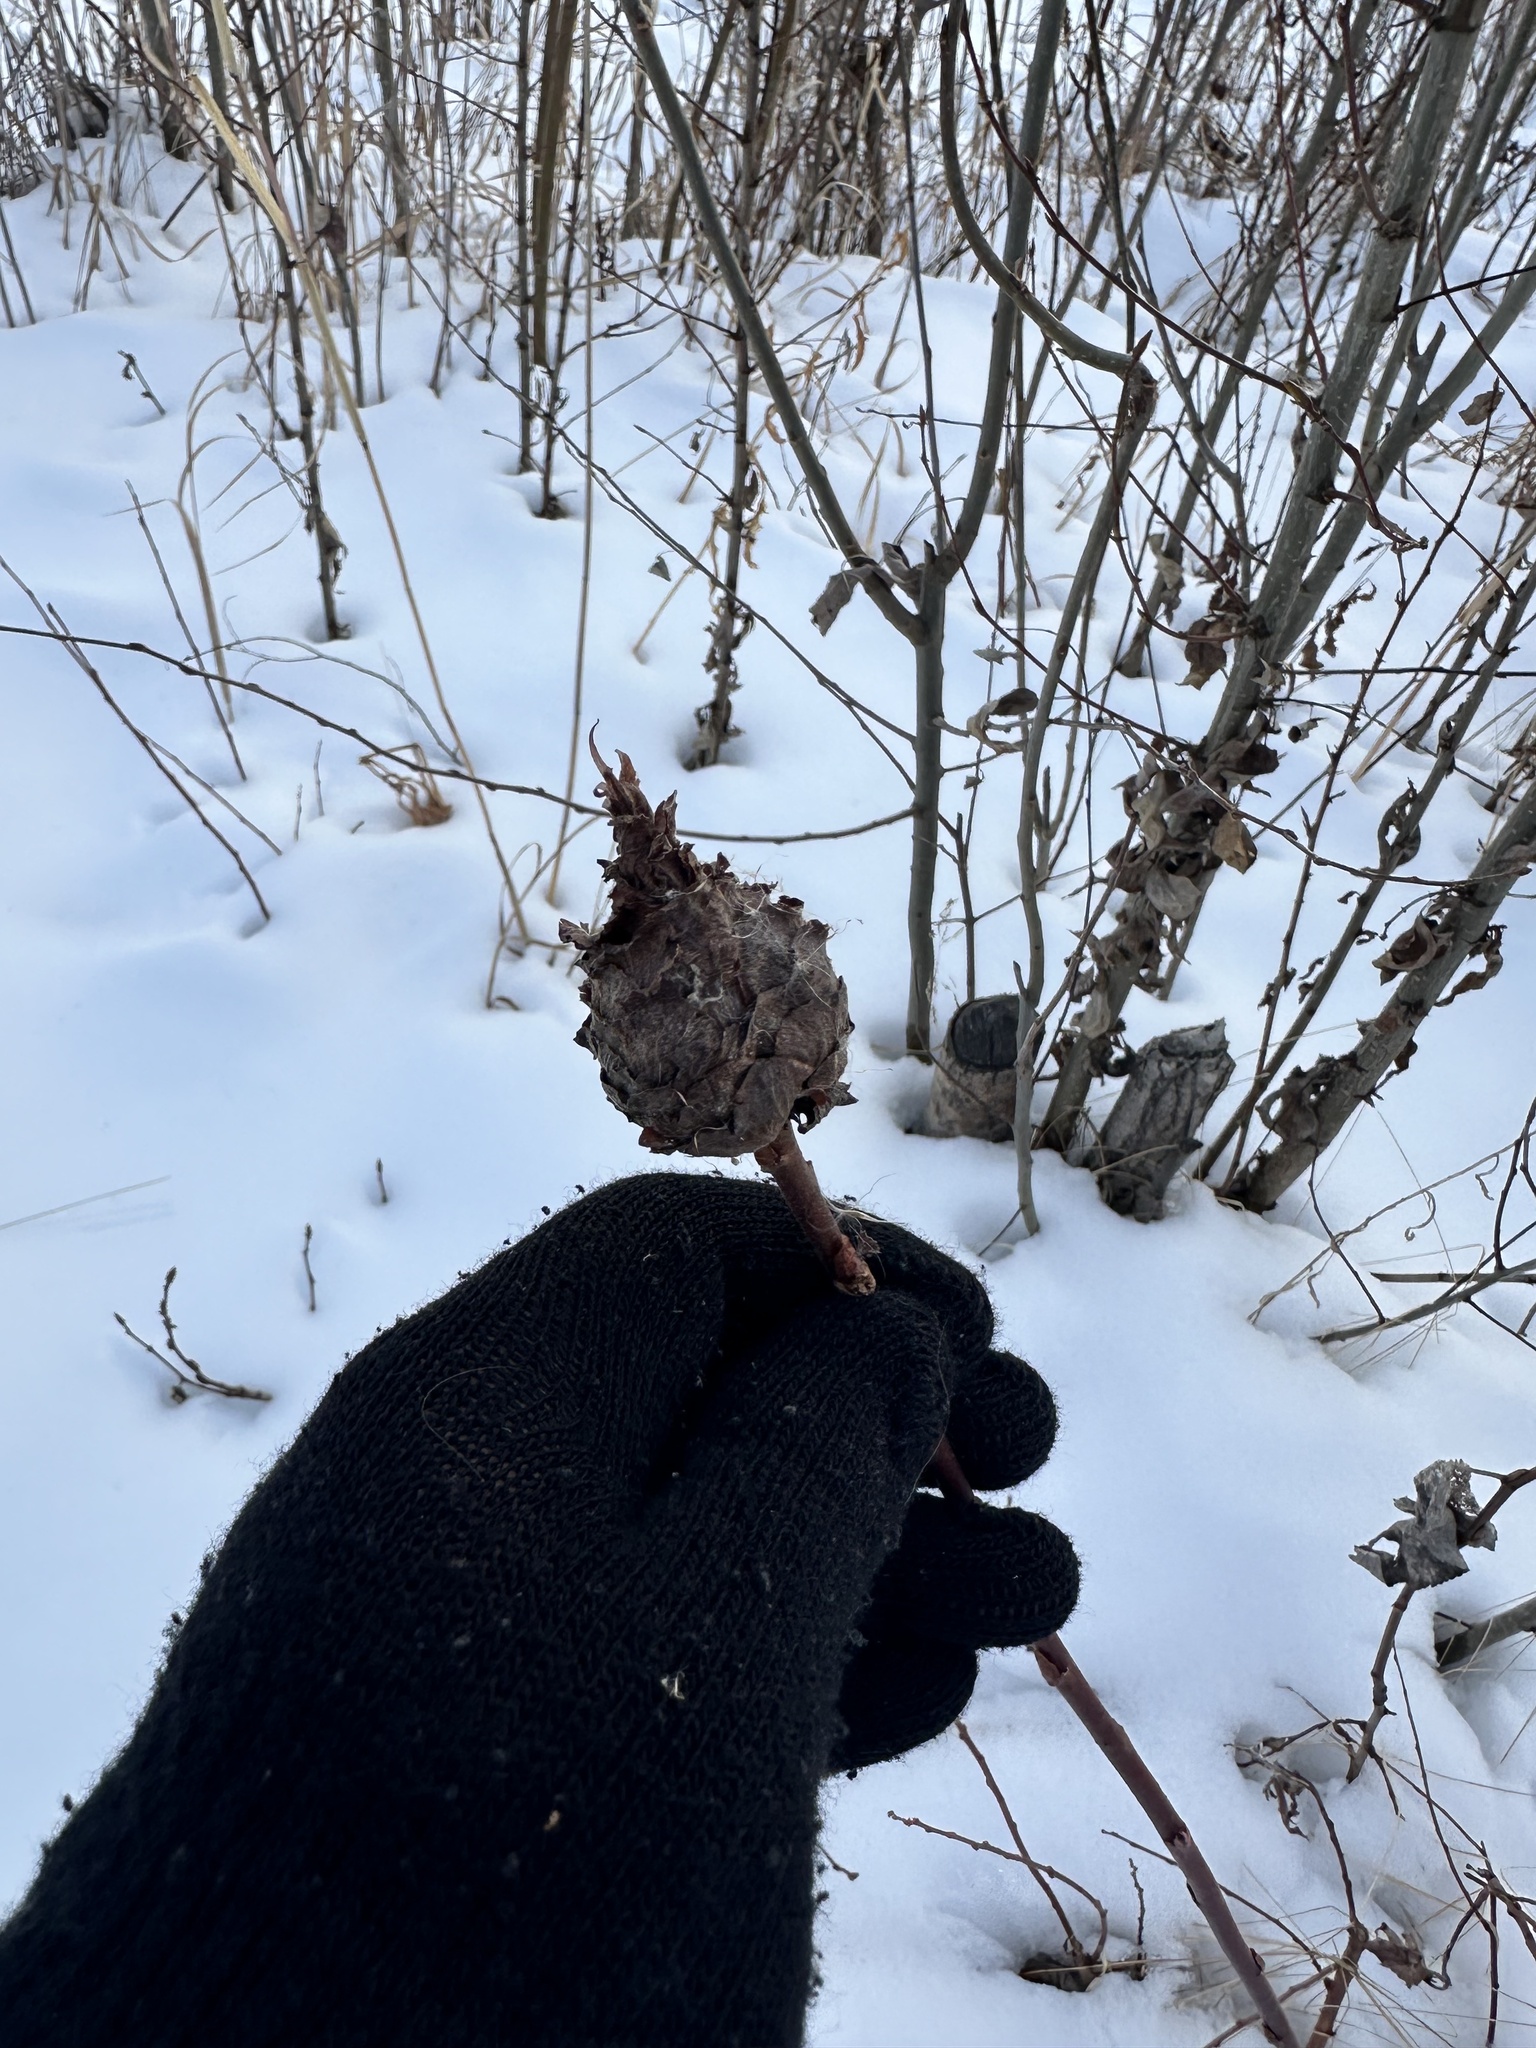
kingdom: Animalia
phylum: Arthropoda
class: Insecta
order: Diptera
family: Cecidomyiidae
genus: Rabdophaga
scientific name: Rabdophaga strobiloides
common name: Willow pinecone gall midge
